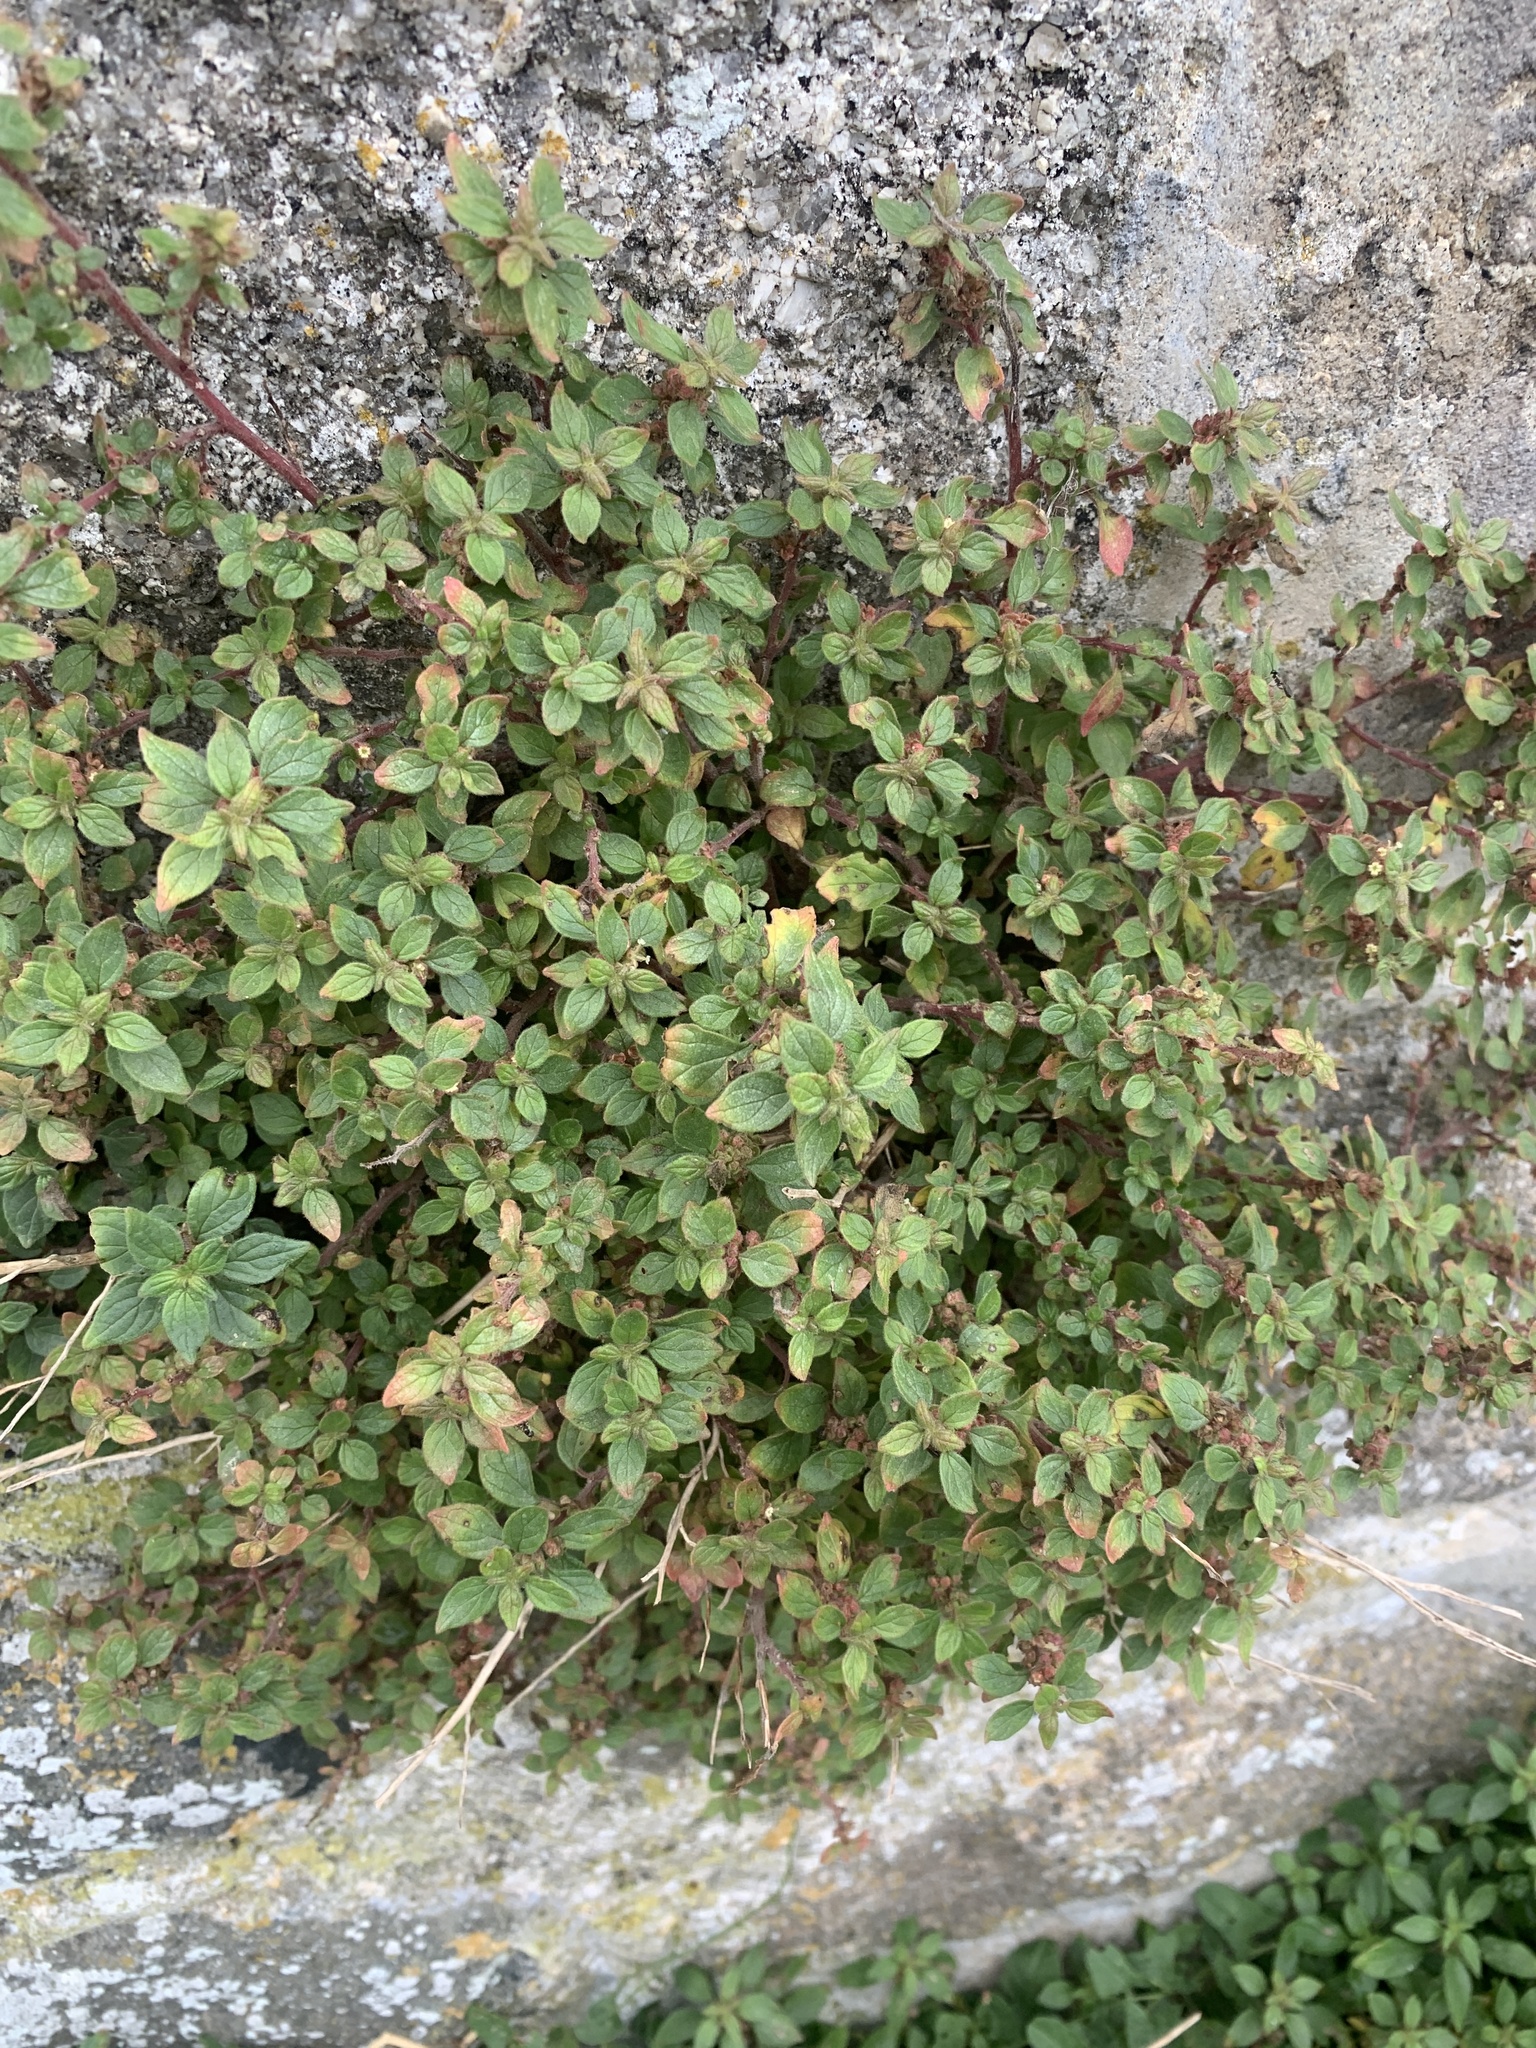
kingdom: Plantae
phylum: Tracheophyta
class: Magnoliopsida
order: Rosales
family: Urticaceae
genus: Parietaria
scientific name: Parietaria judaica
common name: Pellitory-of-the-wall
